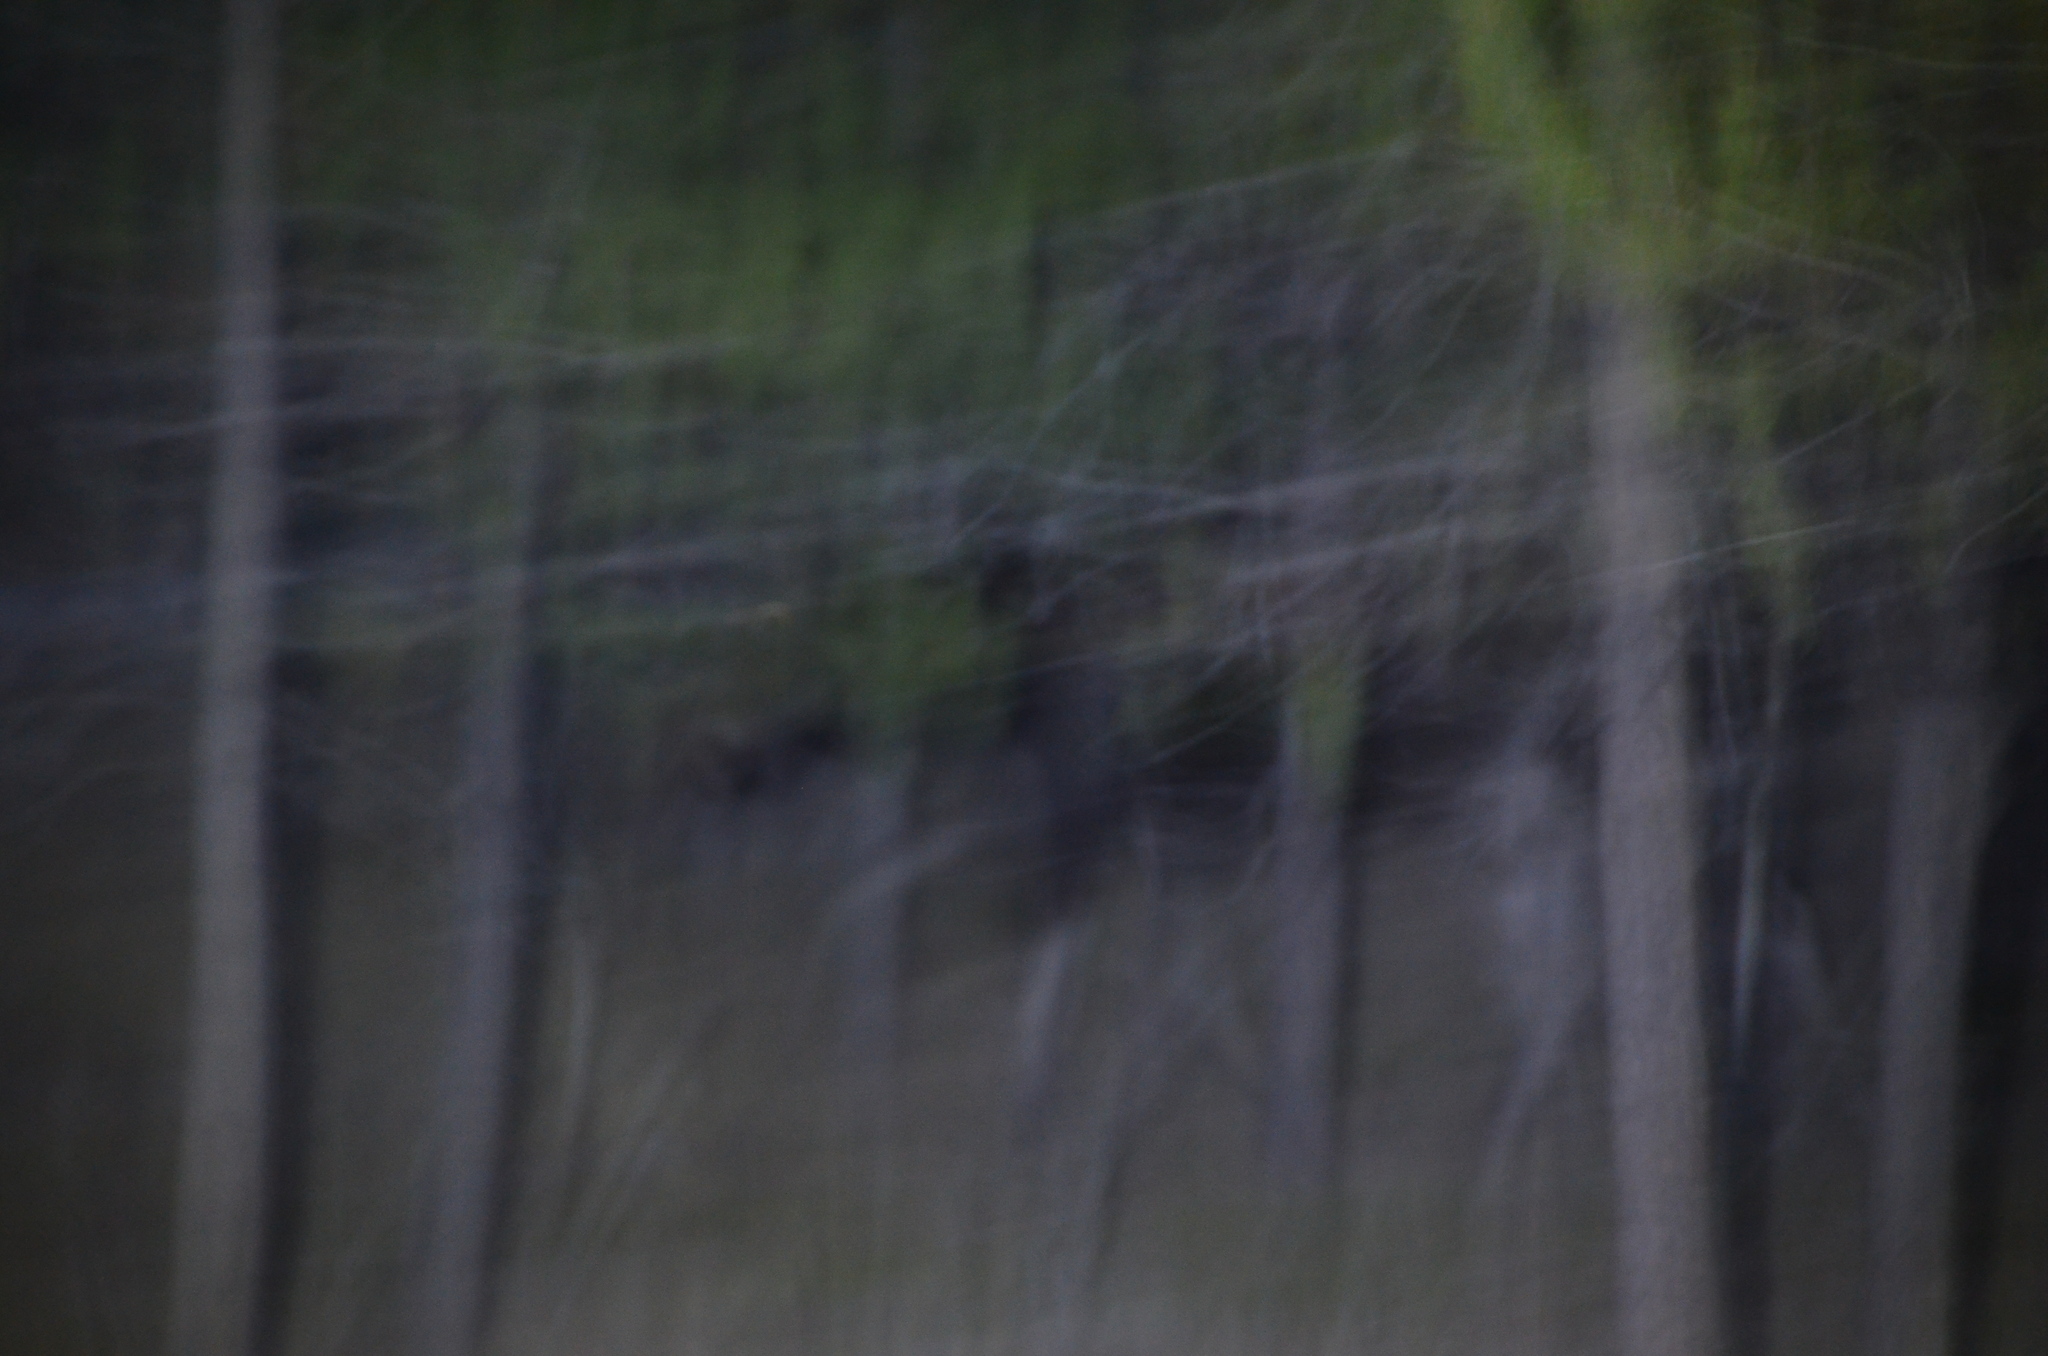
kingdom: Animalia
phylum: Chordata
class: Mammalia
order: Artiodactyla
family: Cervidae
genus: Alces
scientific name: Alces alces
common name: Moose
